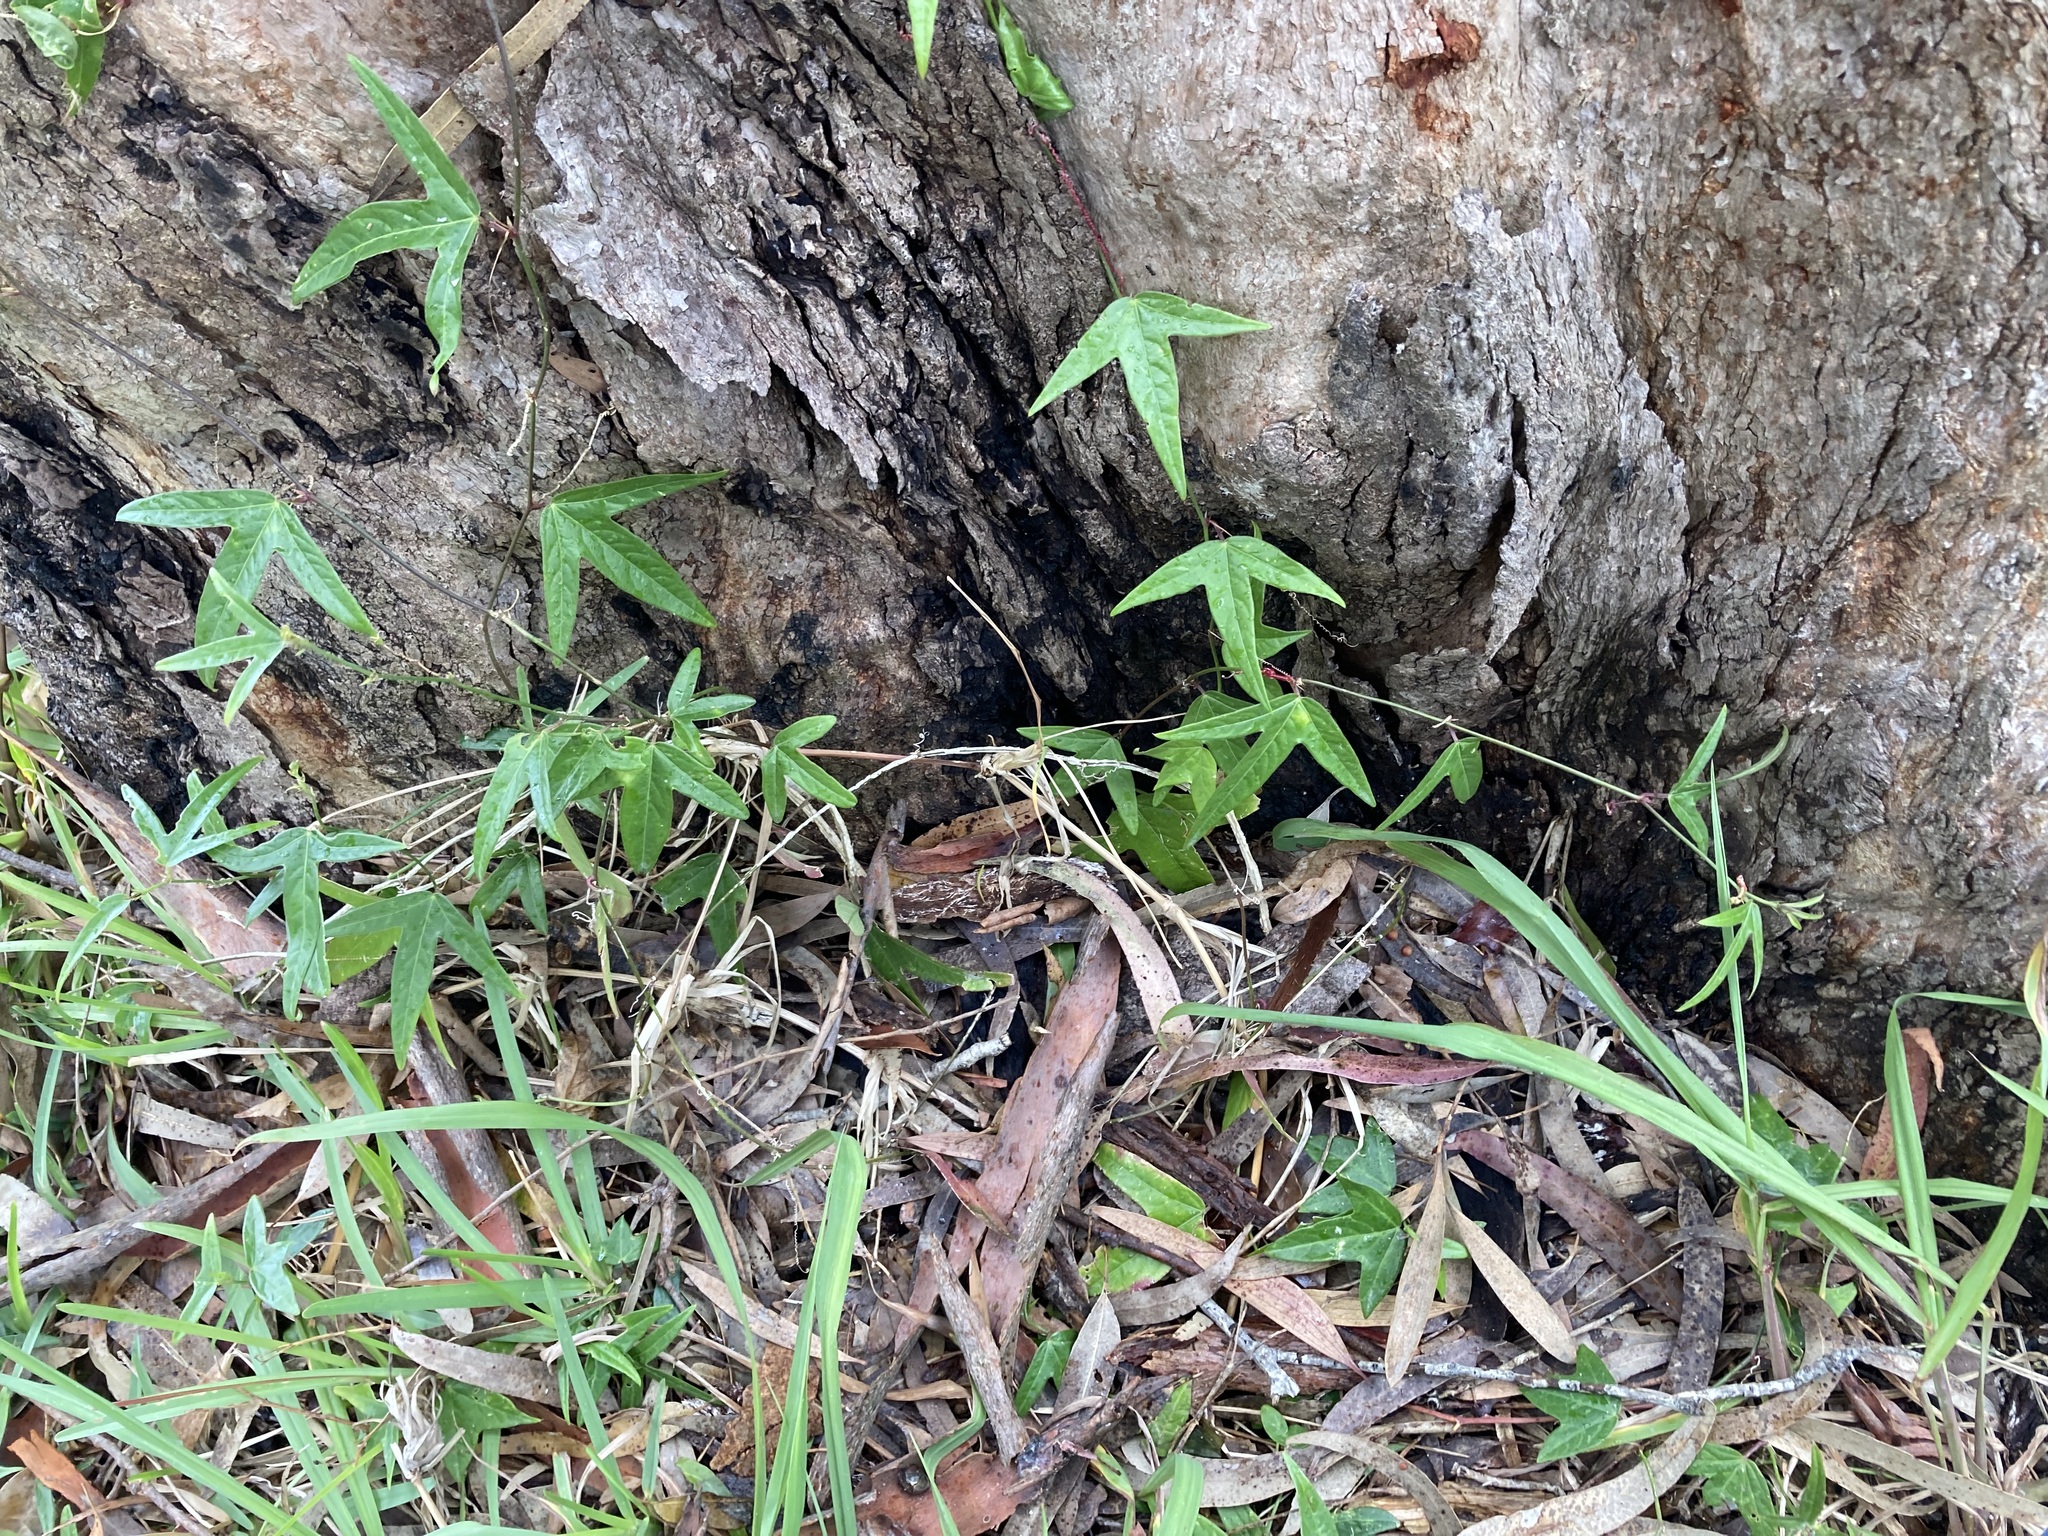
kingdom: Plantae
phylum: Tracheophyta
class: Magnoliopsida
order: Malpighiales
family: Passifloraceae
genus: Passiflora
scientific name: Passiflora suberosa
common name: Wild passionfruit
